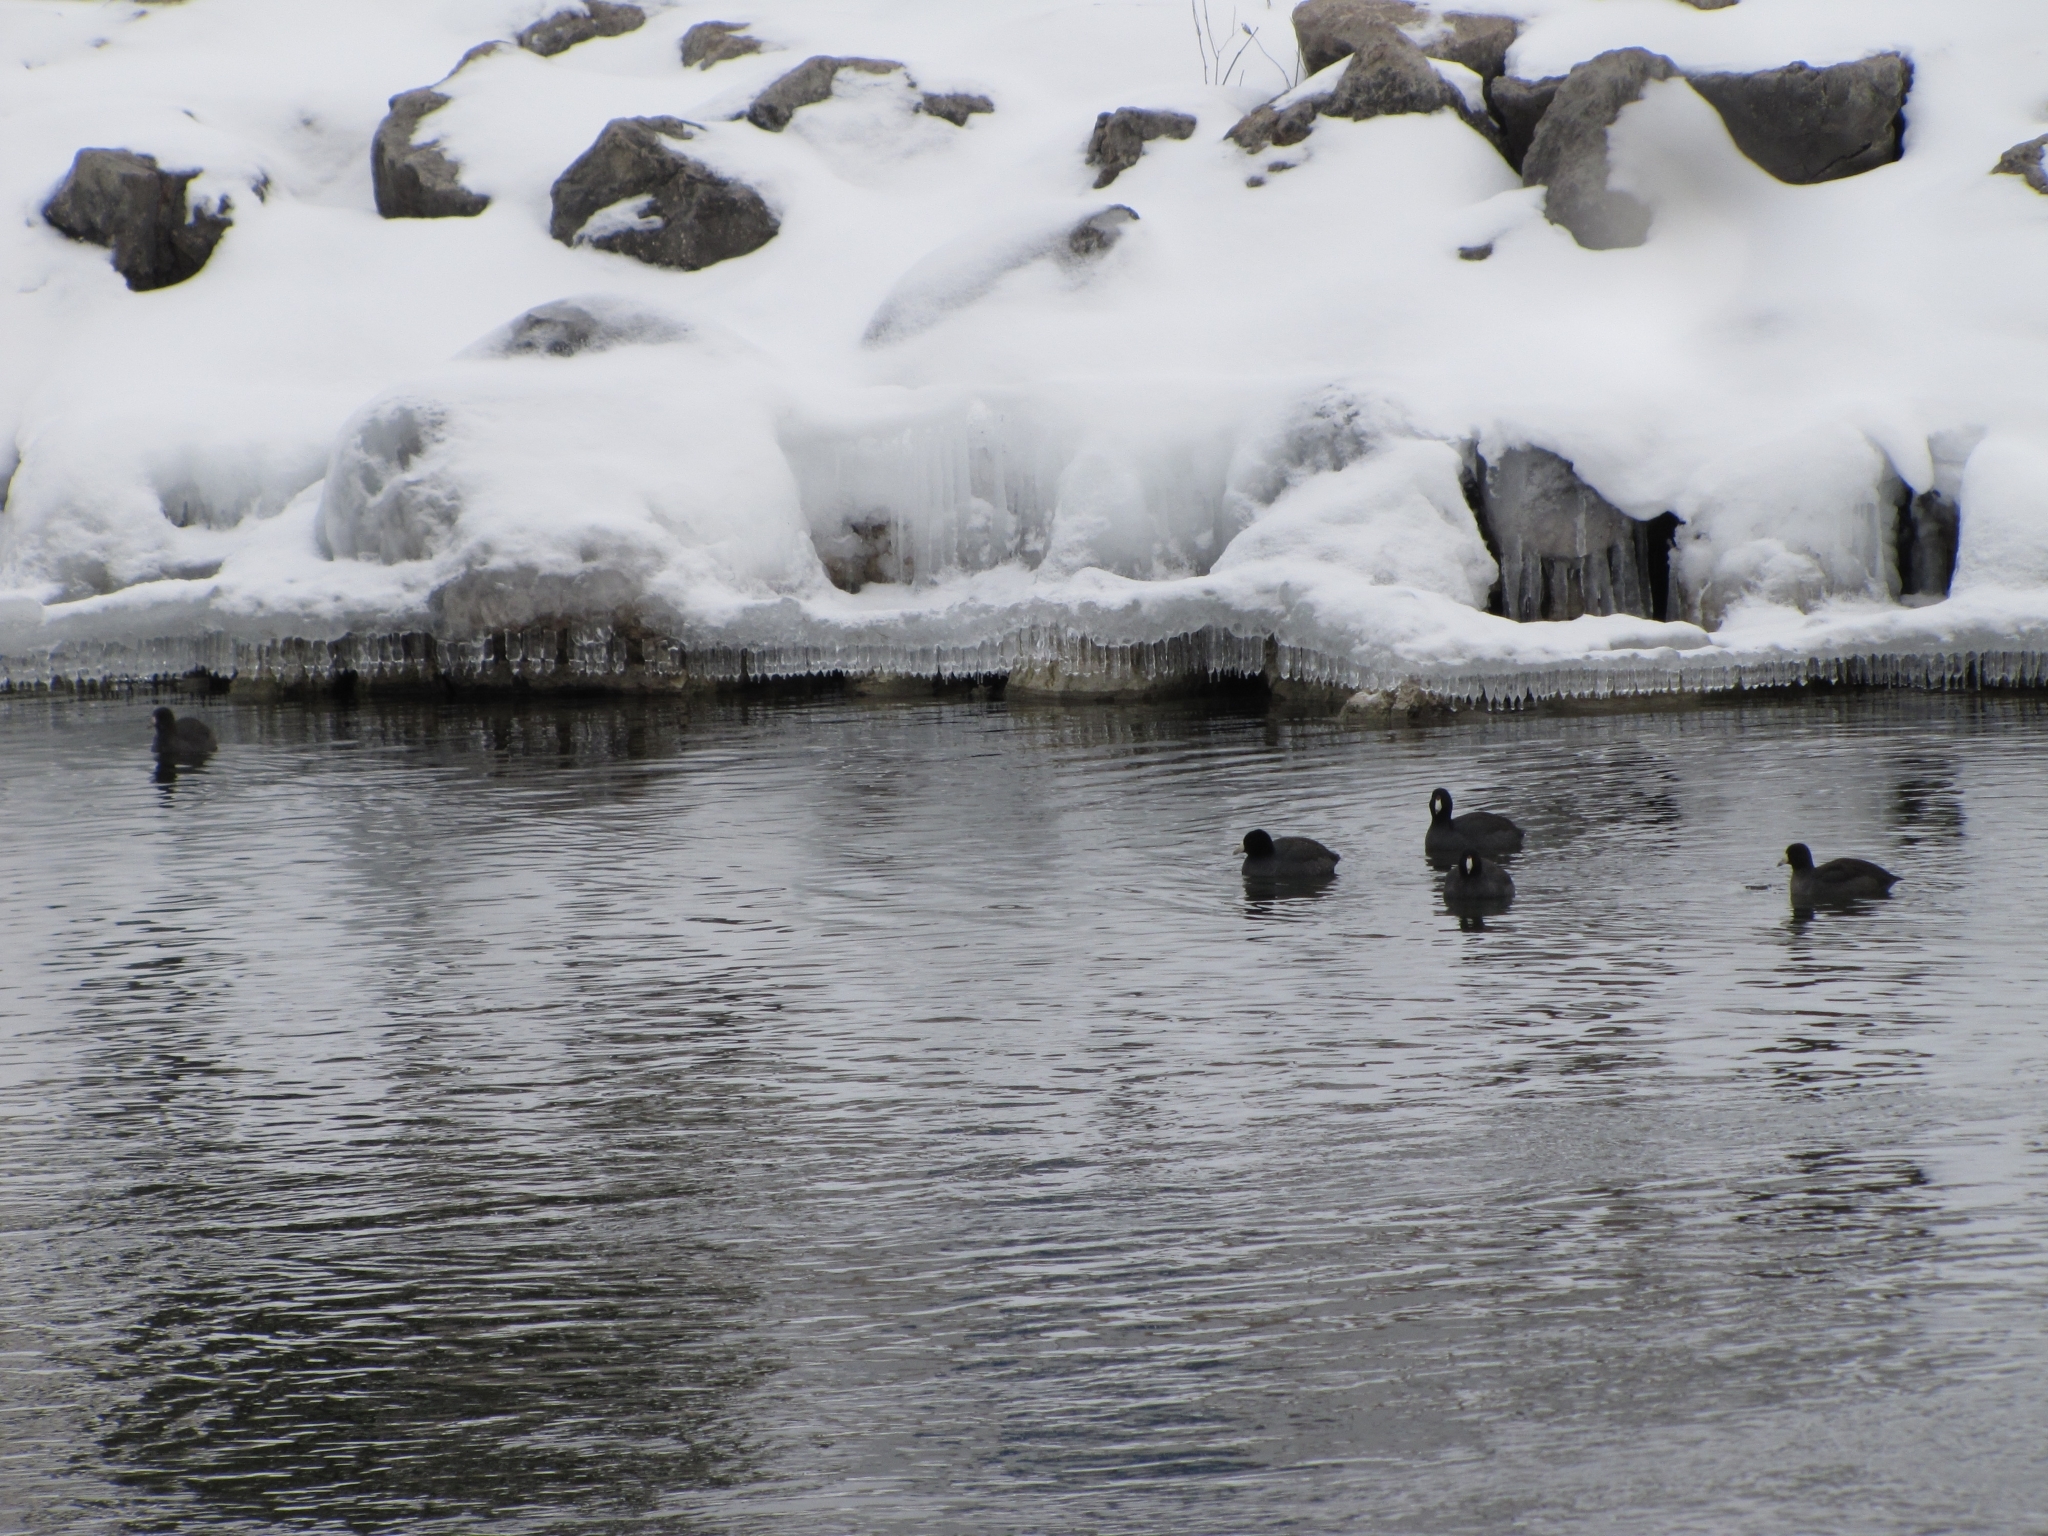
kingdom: Animalia
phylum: Chordata
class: Aves
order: Gruiformes
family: Rallidae
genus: Fulica
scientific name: Fulica americana
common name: American coot
